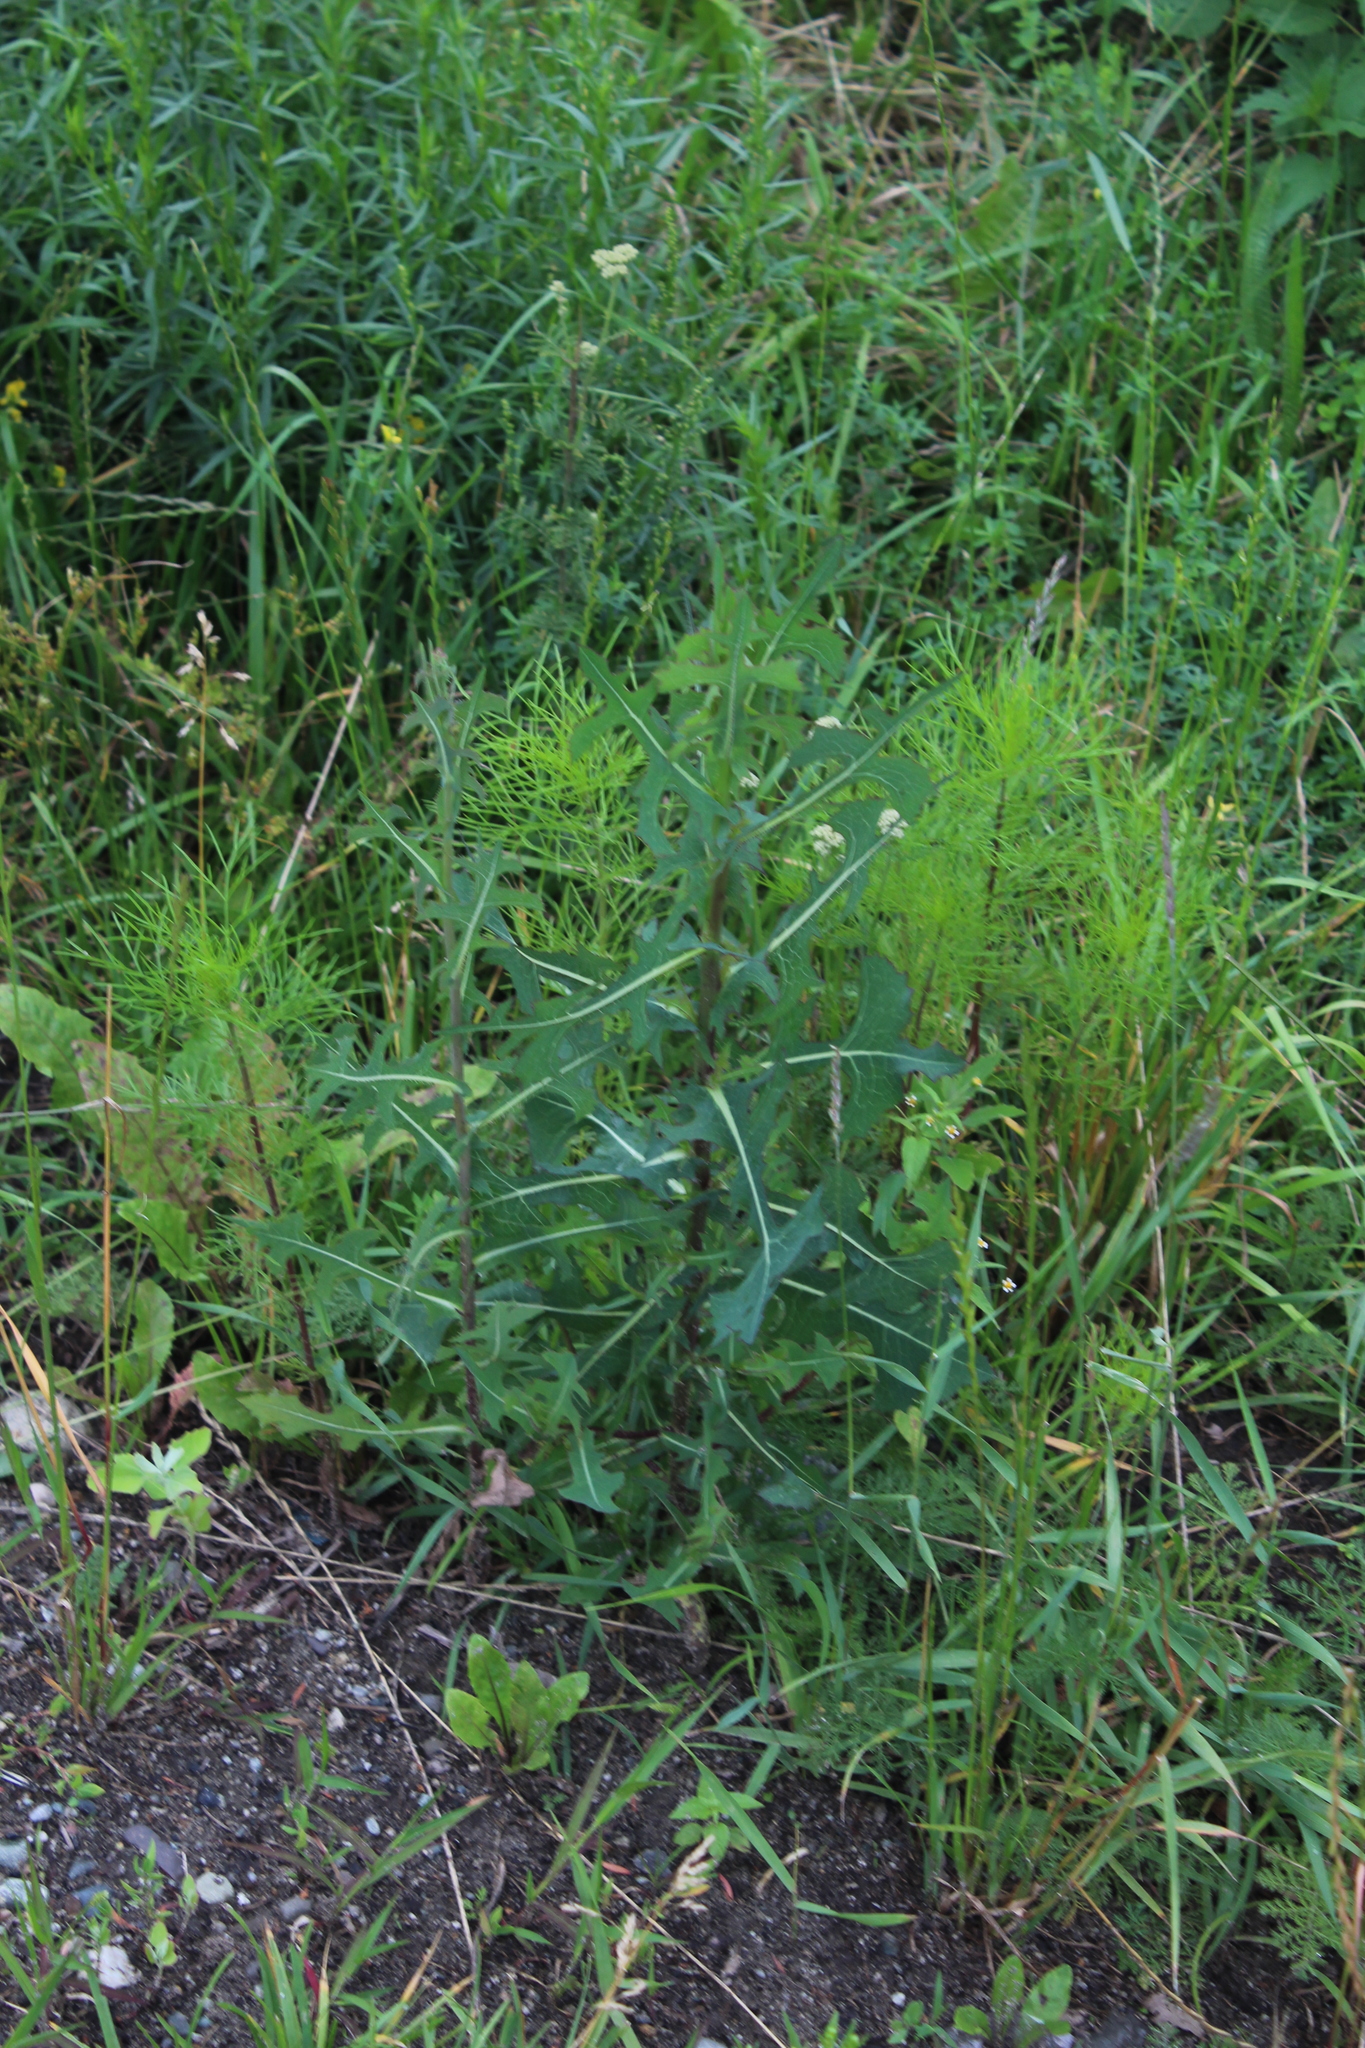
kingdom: Plantae
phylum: Tracheophyta
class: Magnoliopsida
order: Asterales
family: Asteraceae
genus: Lactuca
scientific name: Lactuca serriola
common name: Prickly lettuce
